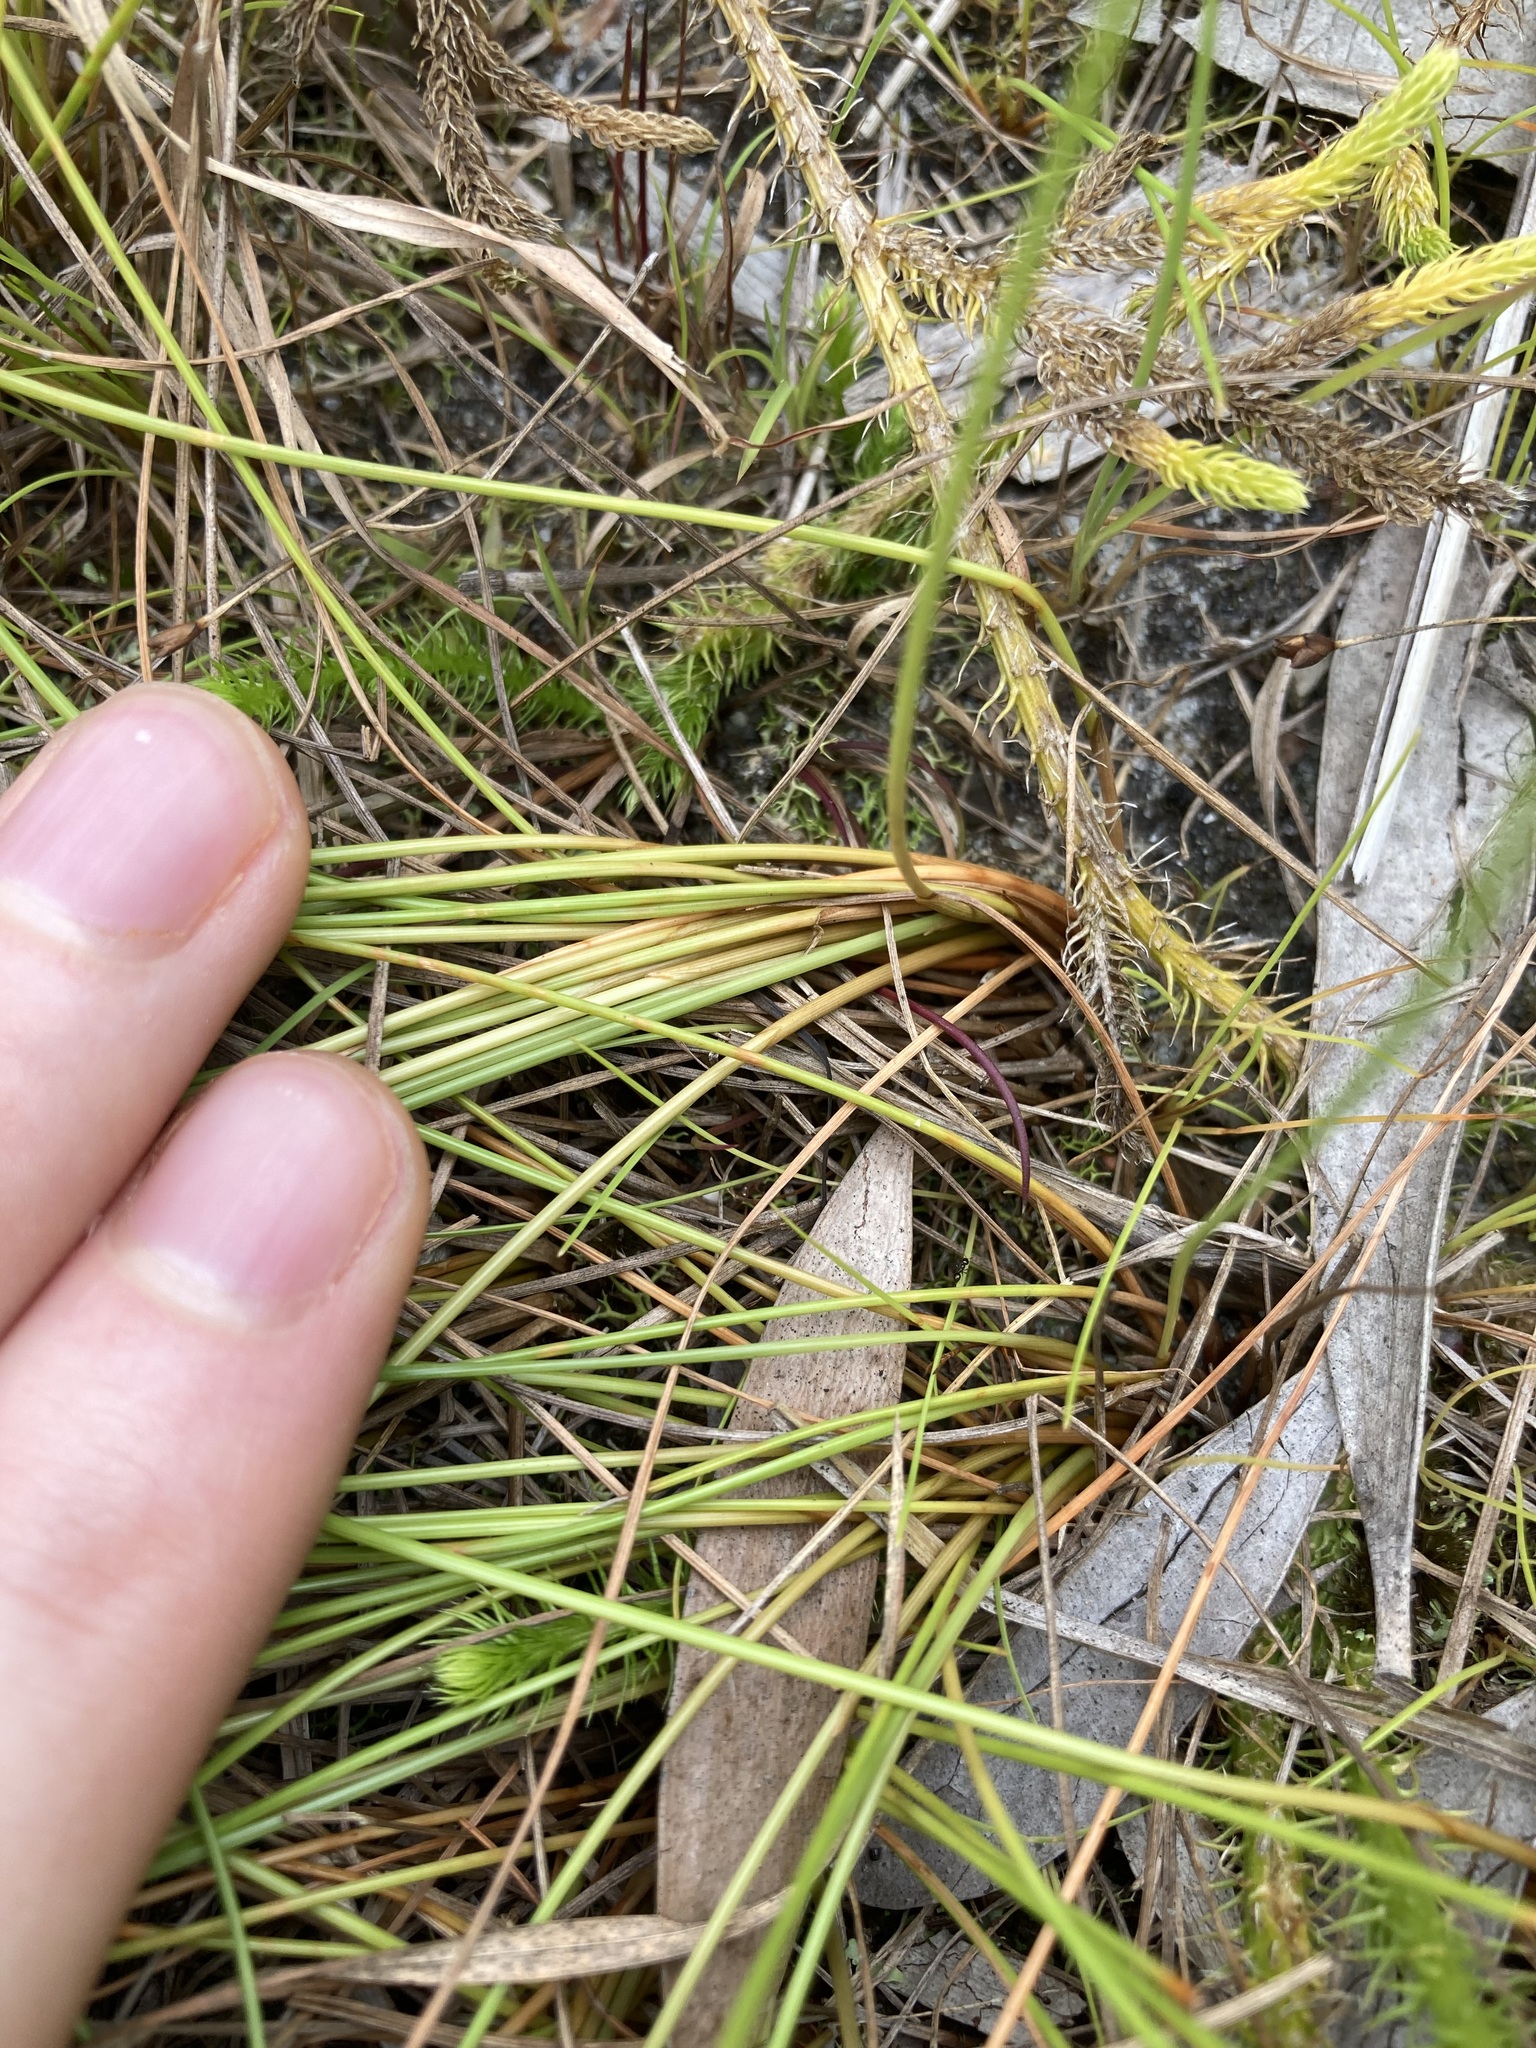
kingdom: Plantae
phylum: Tracheophyta
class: Liliopsida
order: Poales
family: Cyperaceae
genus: Fimbristylis
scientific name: Fimbristylis nutans
